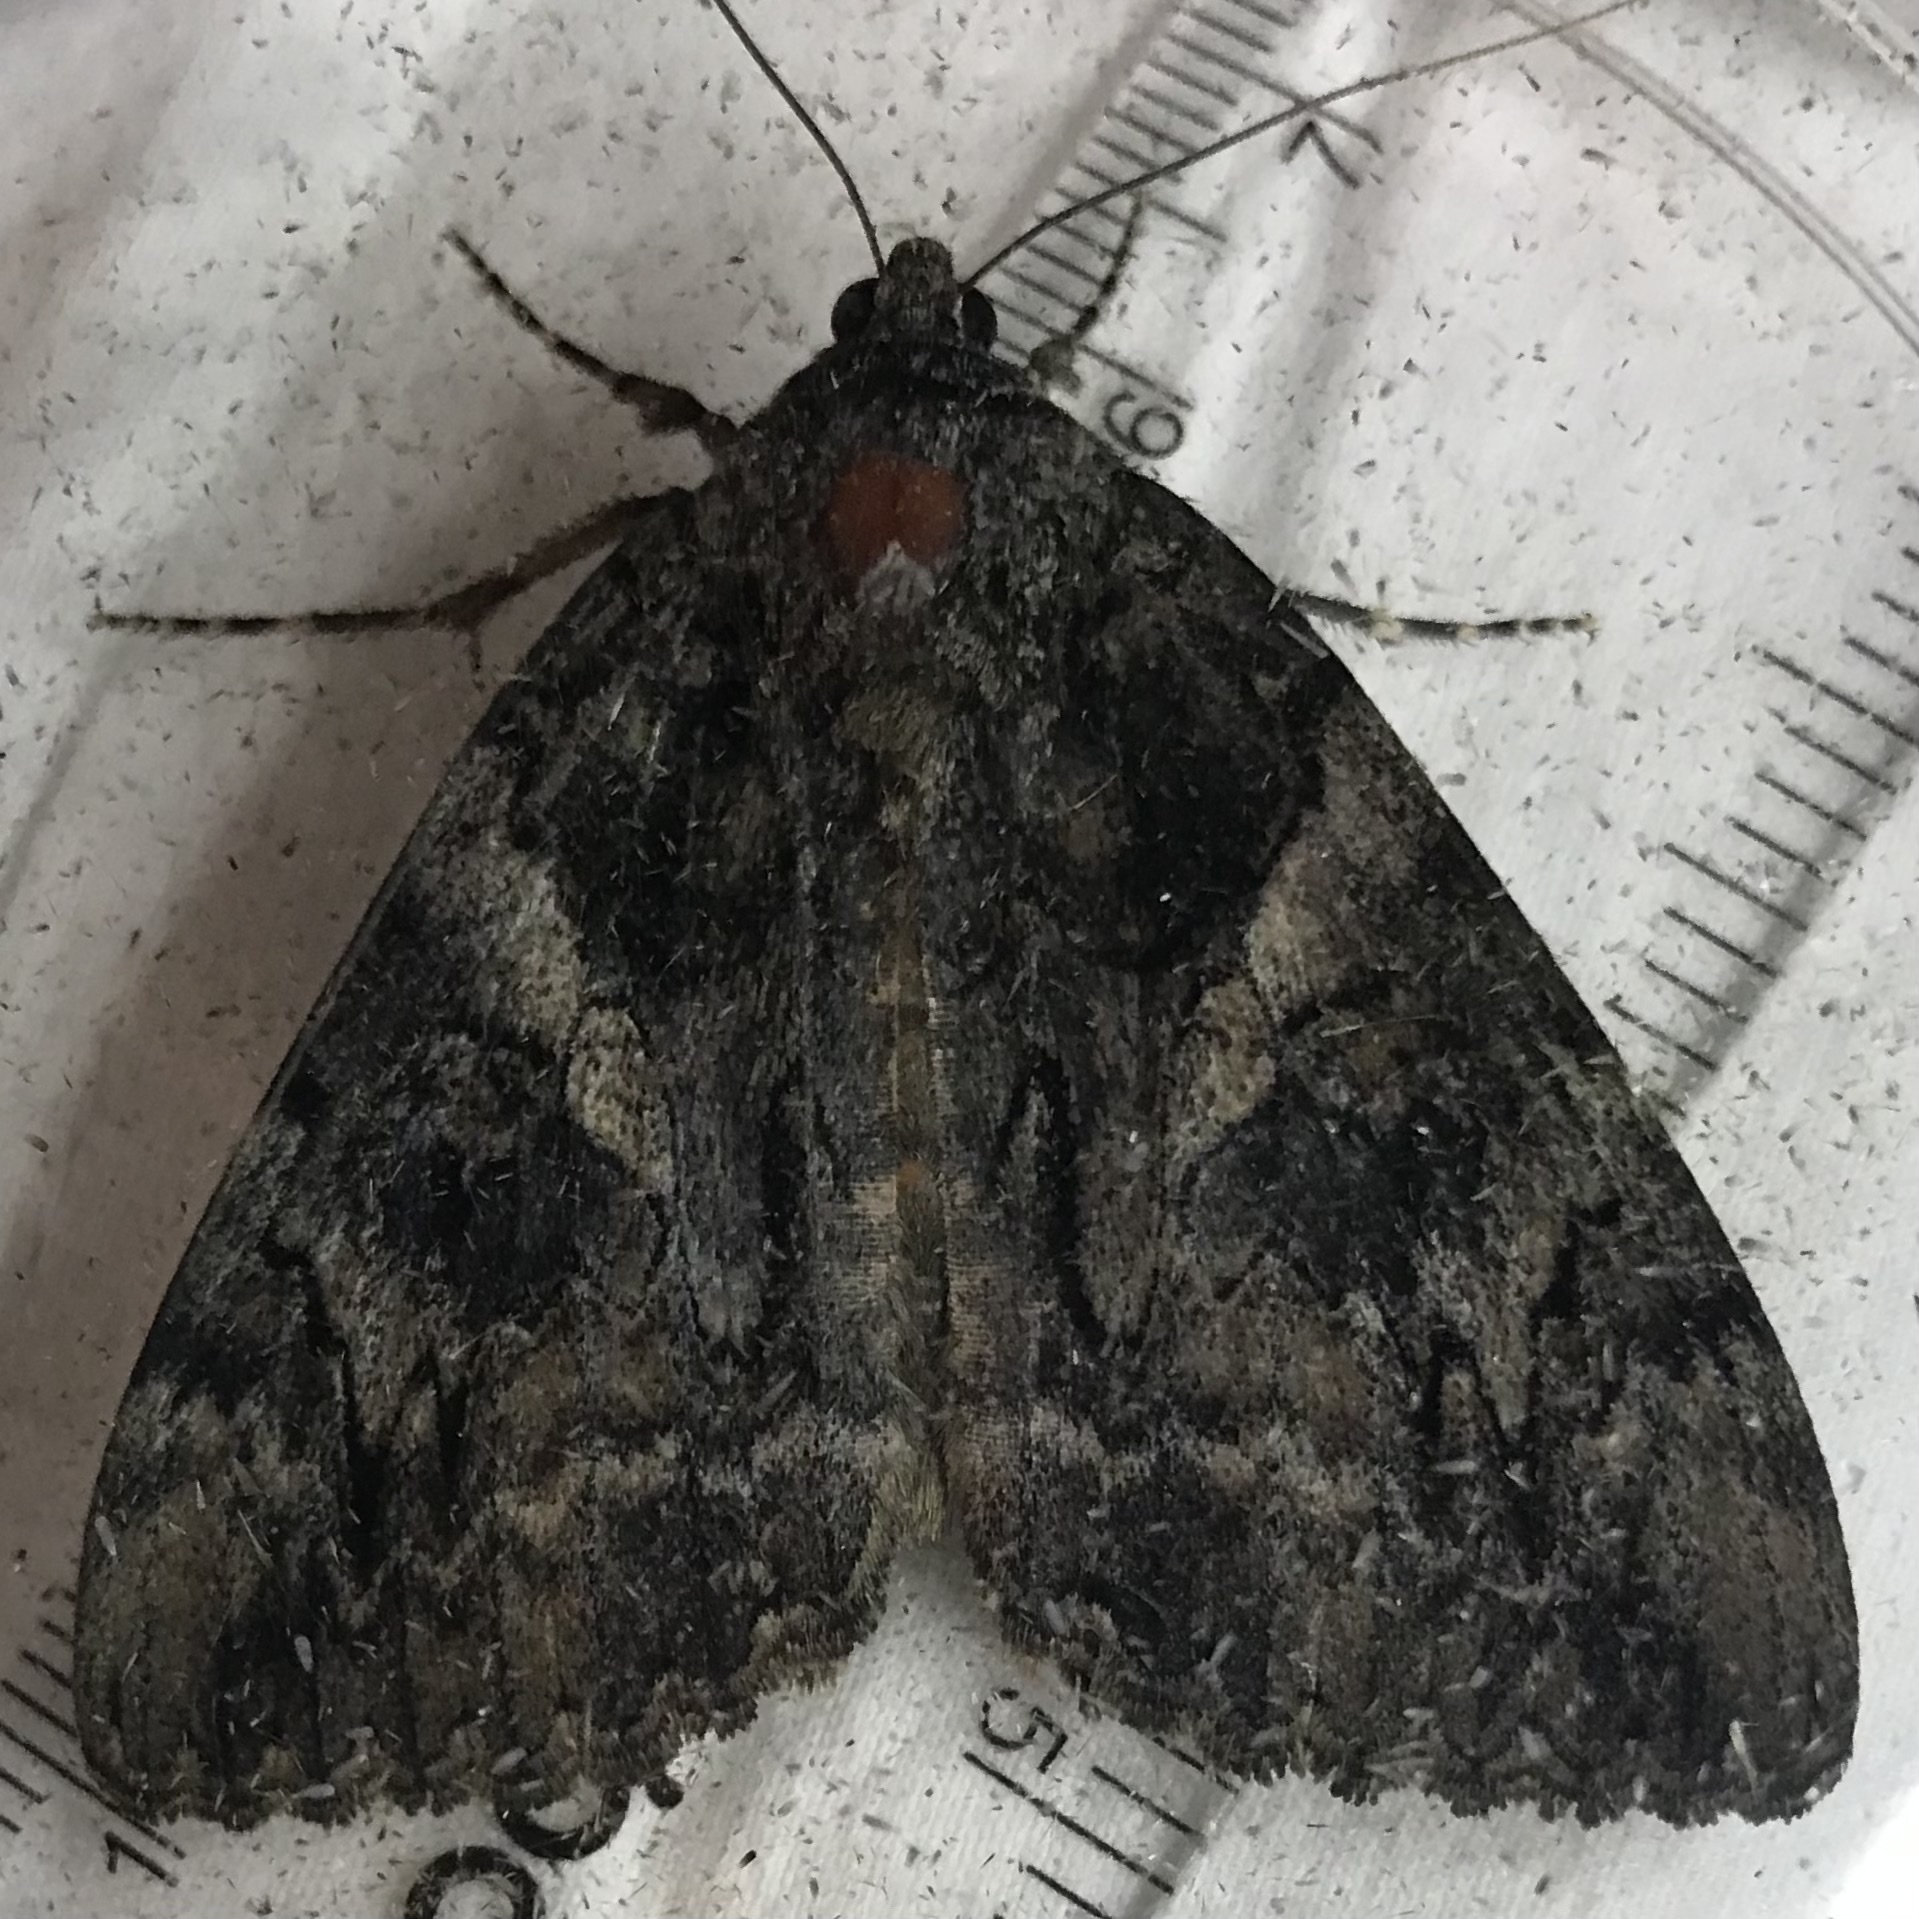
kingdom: Animalia
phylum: Arthropoda
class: Insecta
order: Lepidoptera
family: Erebidae
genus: Catocala
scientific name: Catocala piatrix
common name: The penitent underwing
